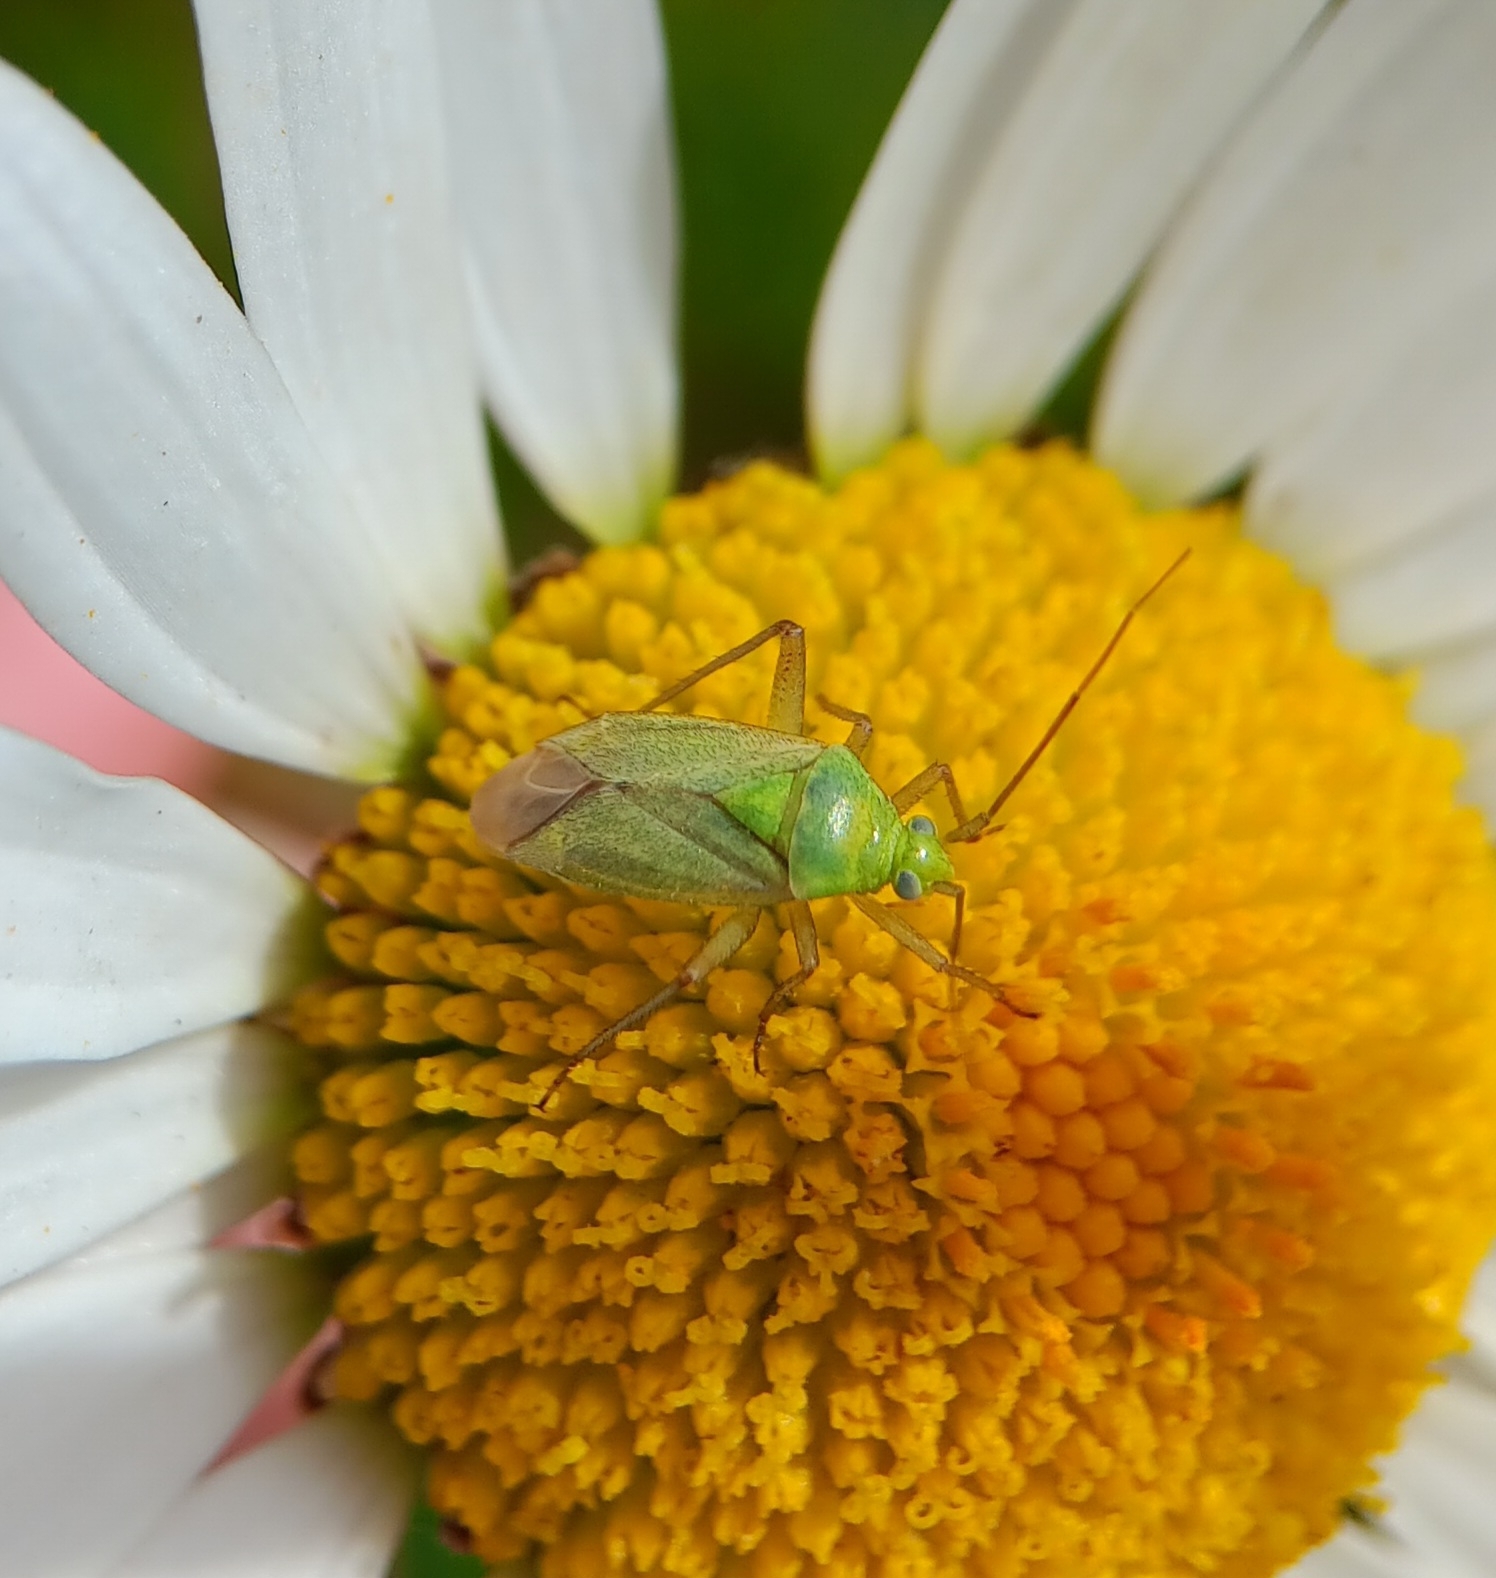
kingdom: Animalia
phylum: Arthropoda
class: Insecta
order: Hemiptera
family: Miridae
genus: Closterotomus
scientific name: Closterotomus norvegicus
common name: Plant bug
